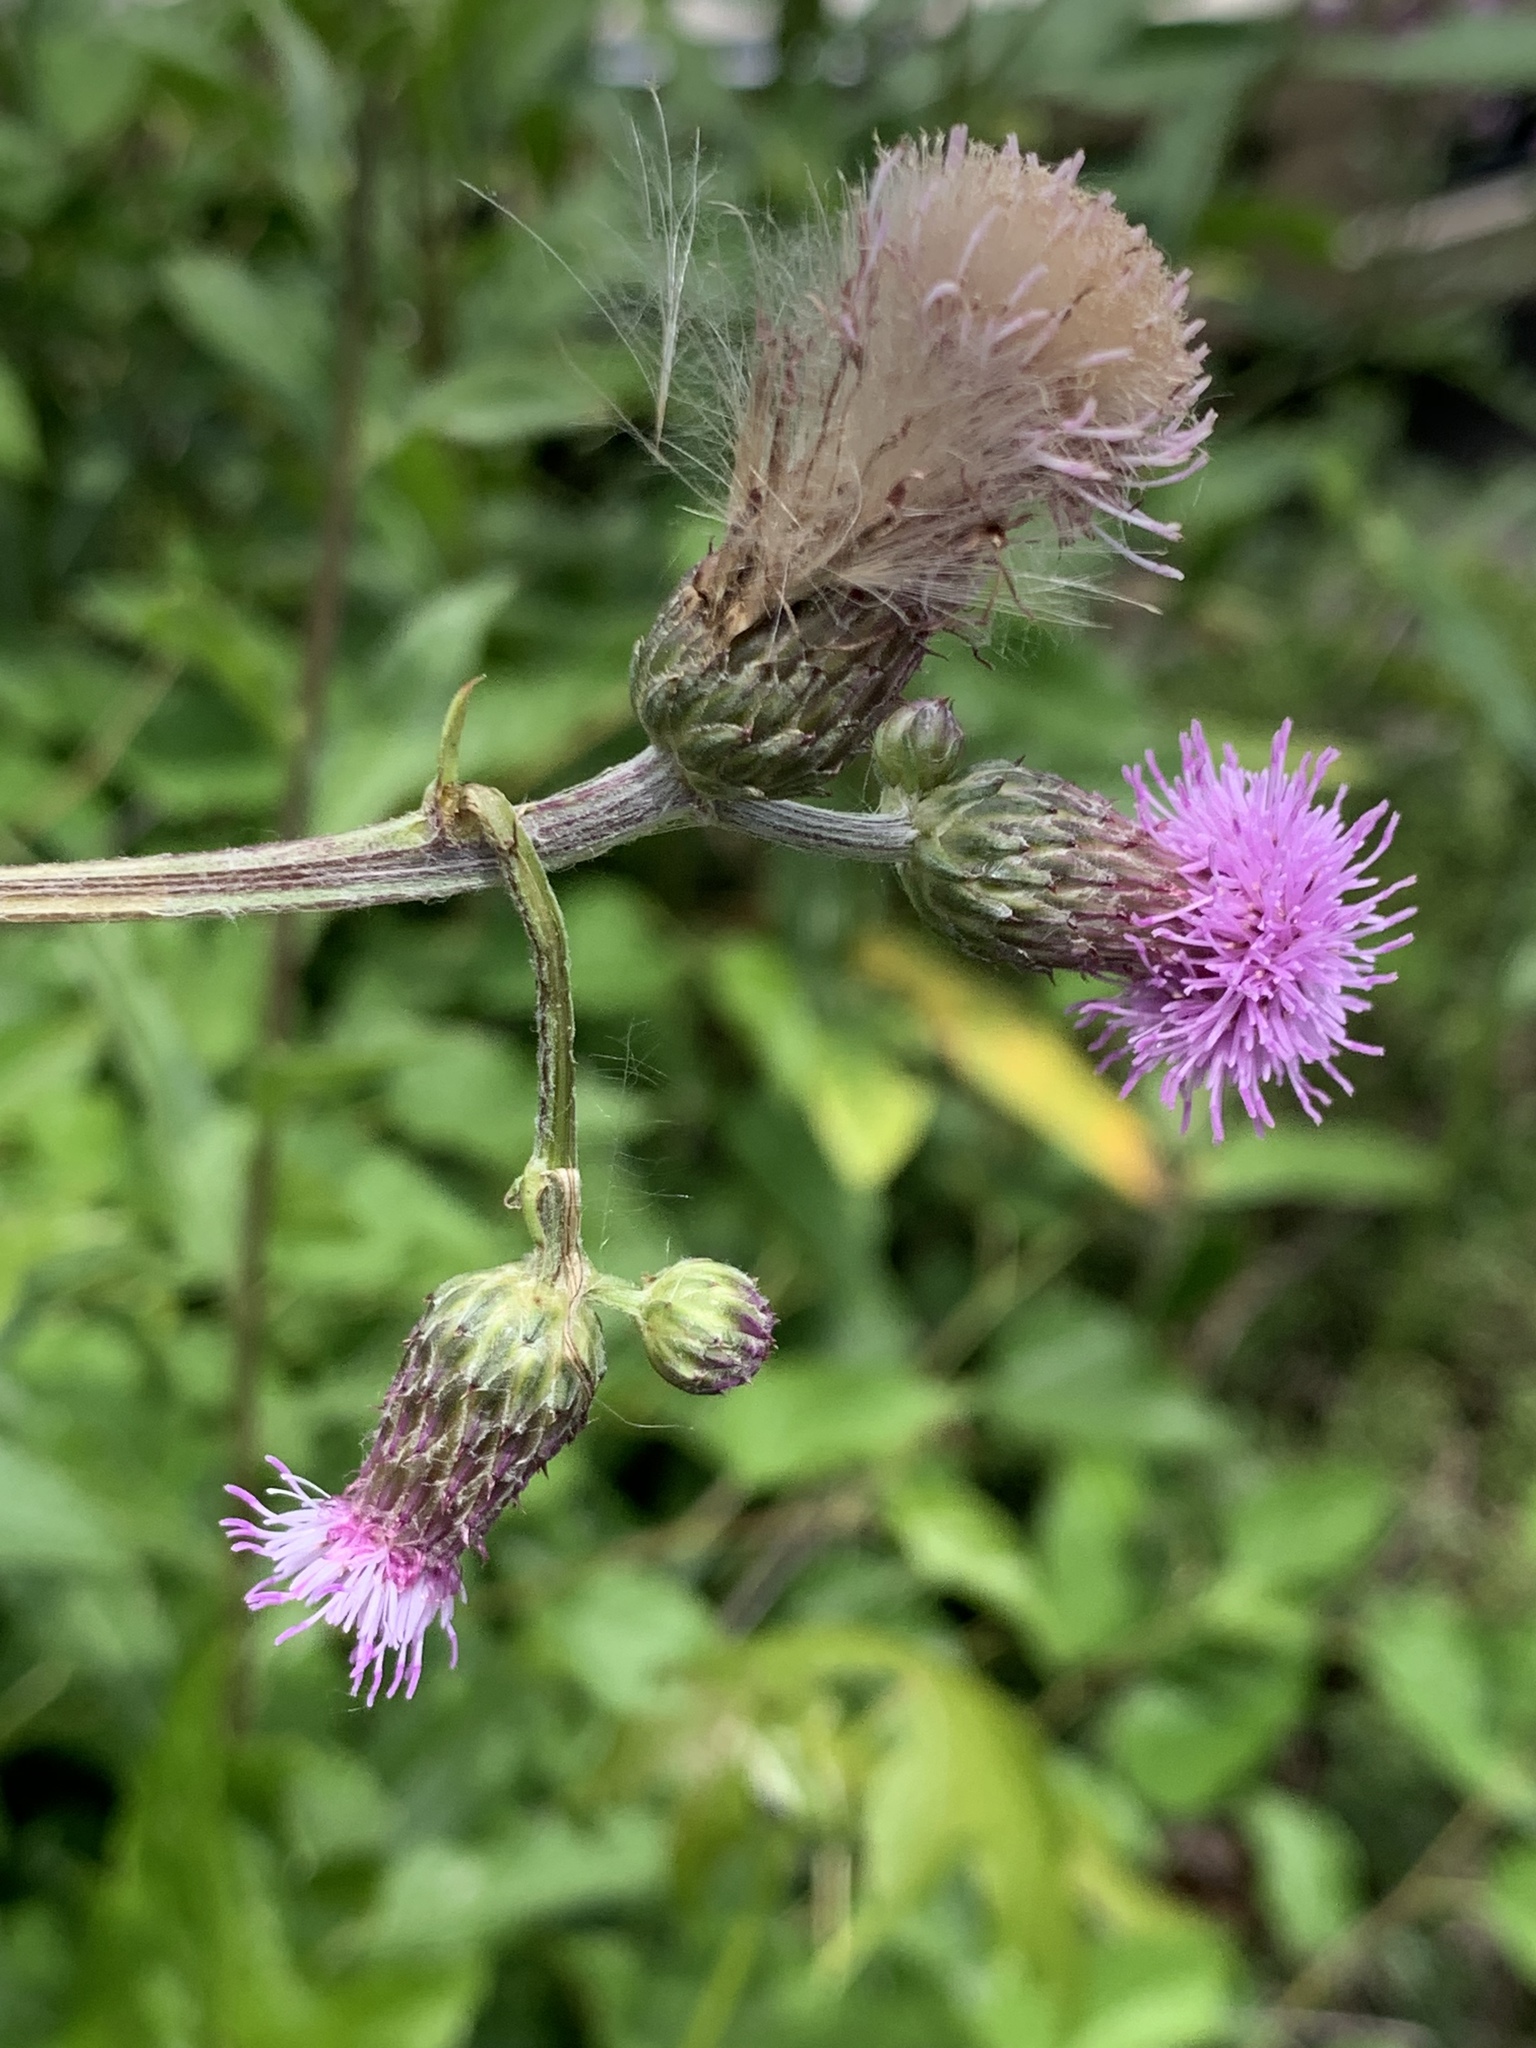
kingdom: Plantae
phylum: Tracheophyta
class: Magnoliopsida
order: Asterales
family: Asteraceae
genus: Cirsium
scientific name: Cirsium arvense
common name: Creeping thistle
